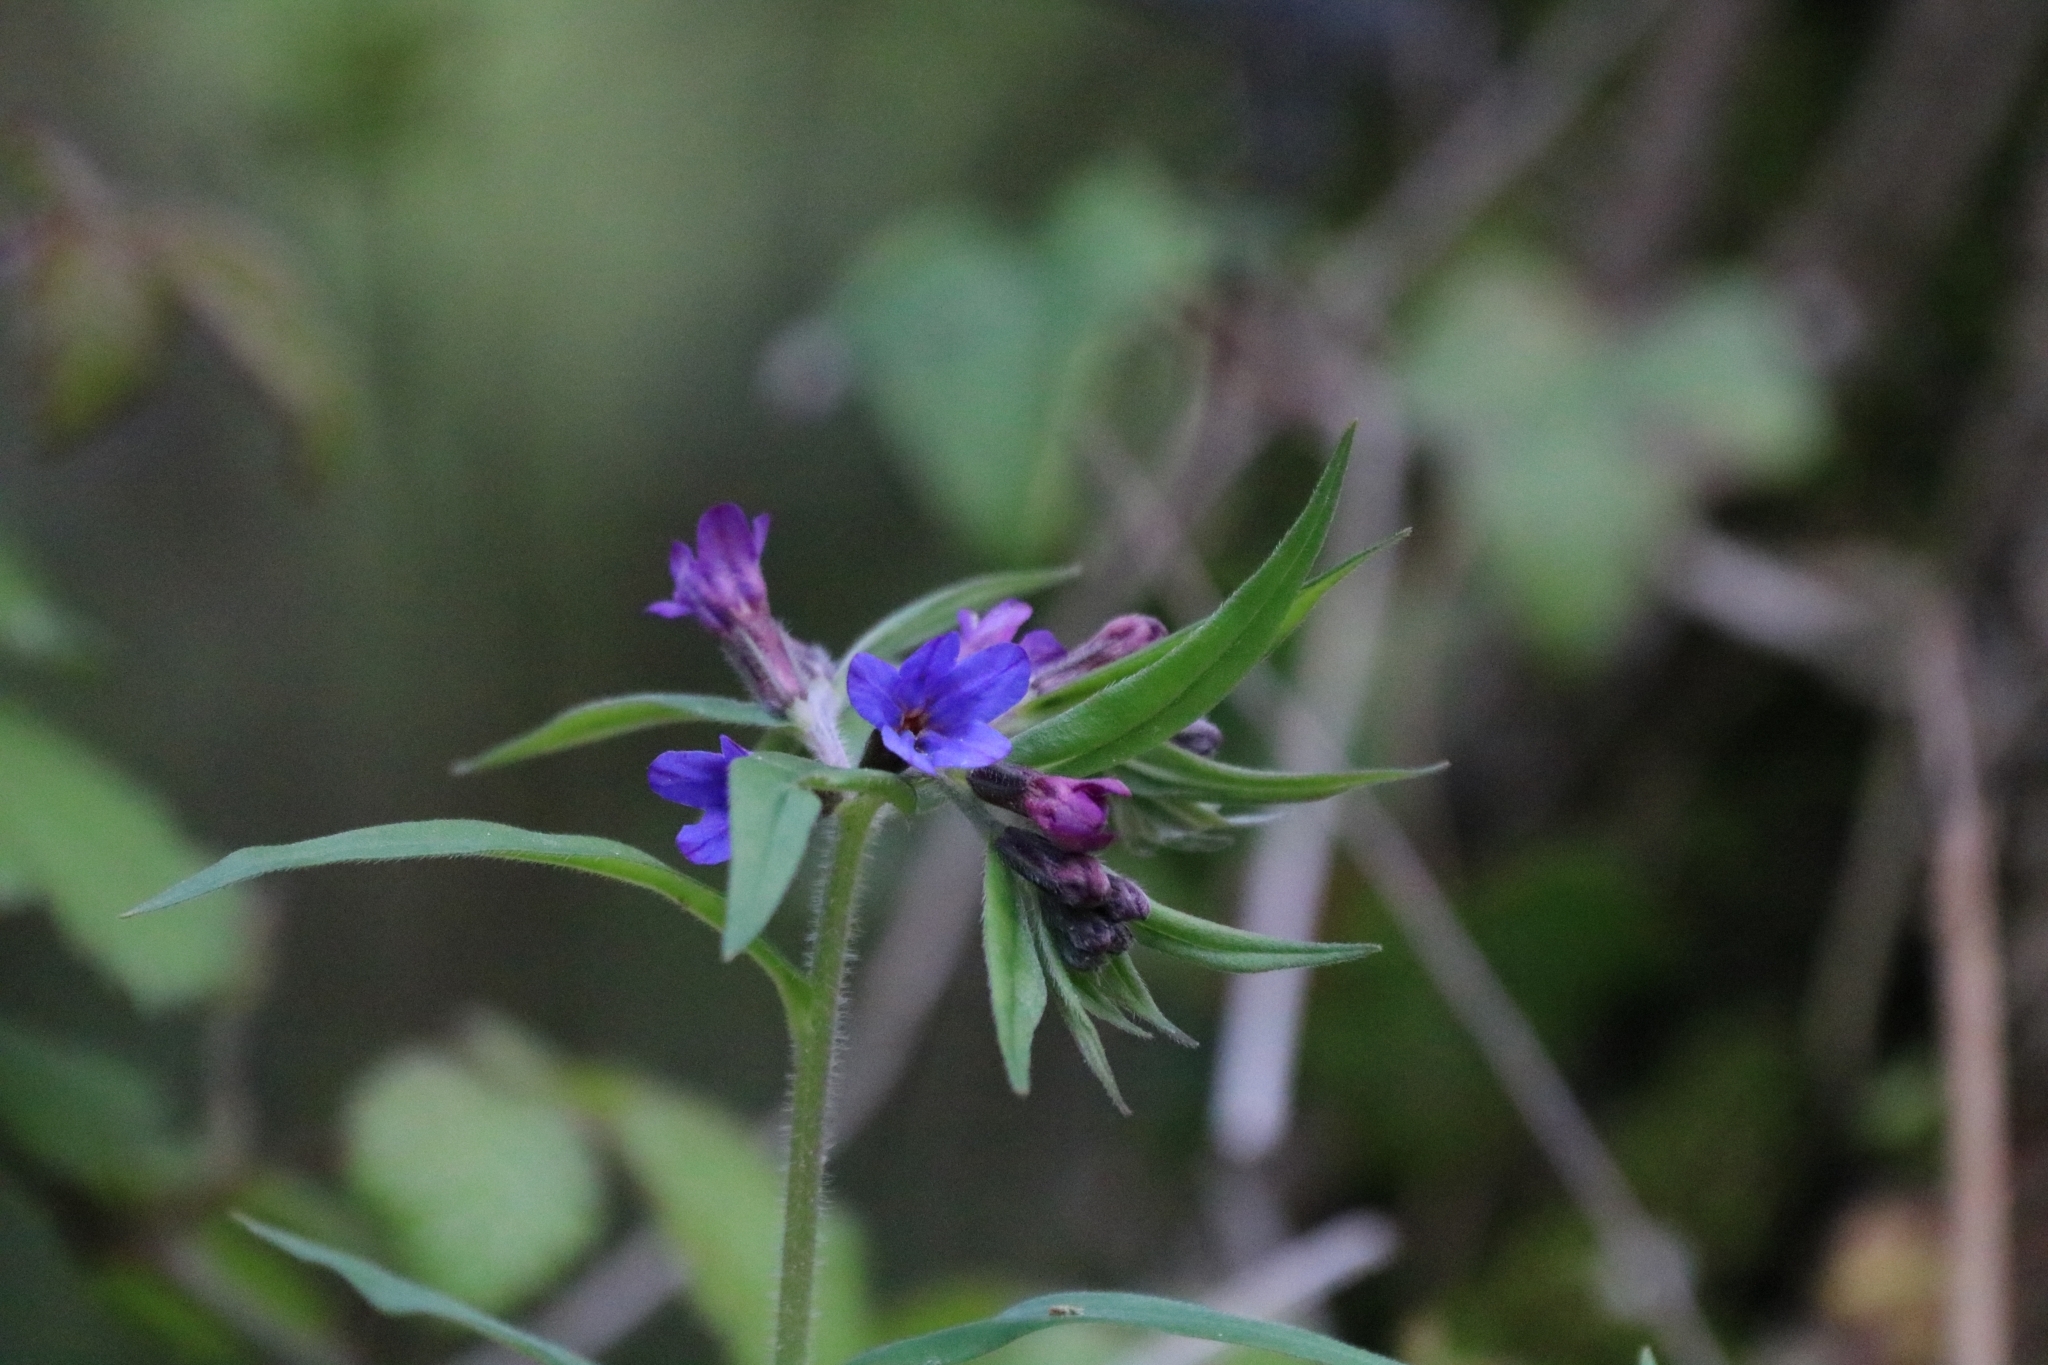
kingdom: Plantae
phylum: Tracheophyta
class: Magnoliopsida
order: Boraginales
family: Boraginaceae
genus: Aegonychon
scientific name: Aegonychon purpurocaeruleum
